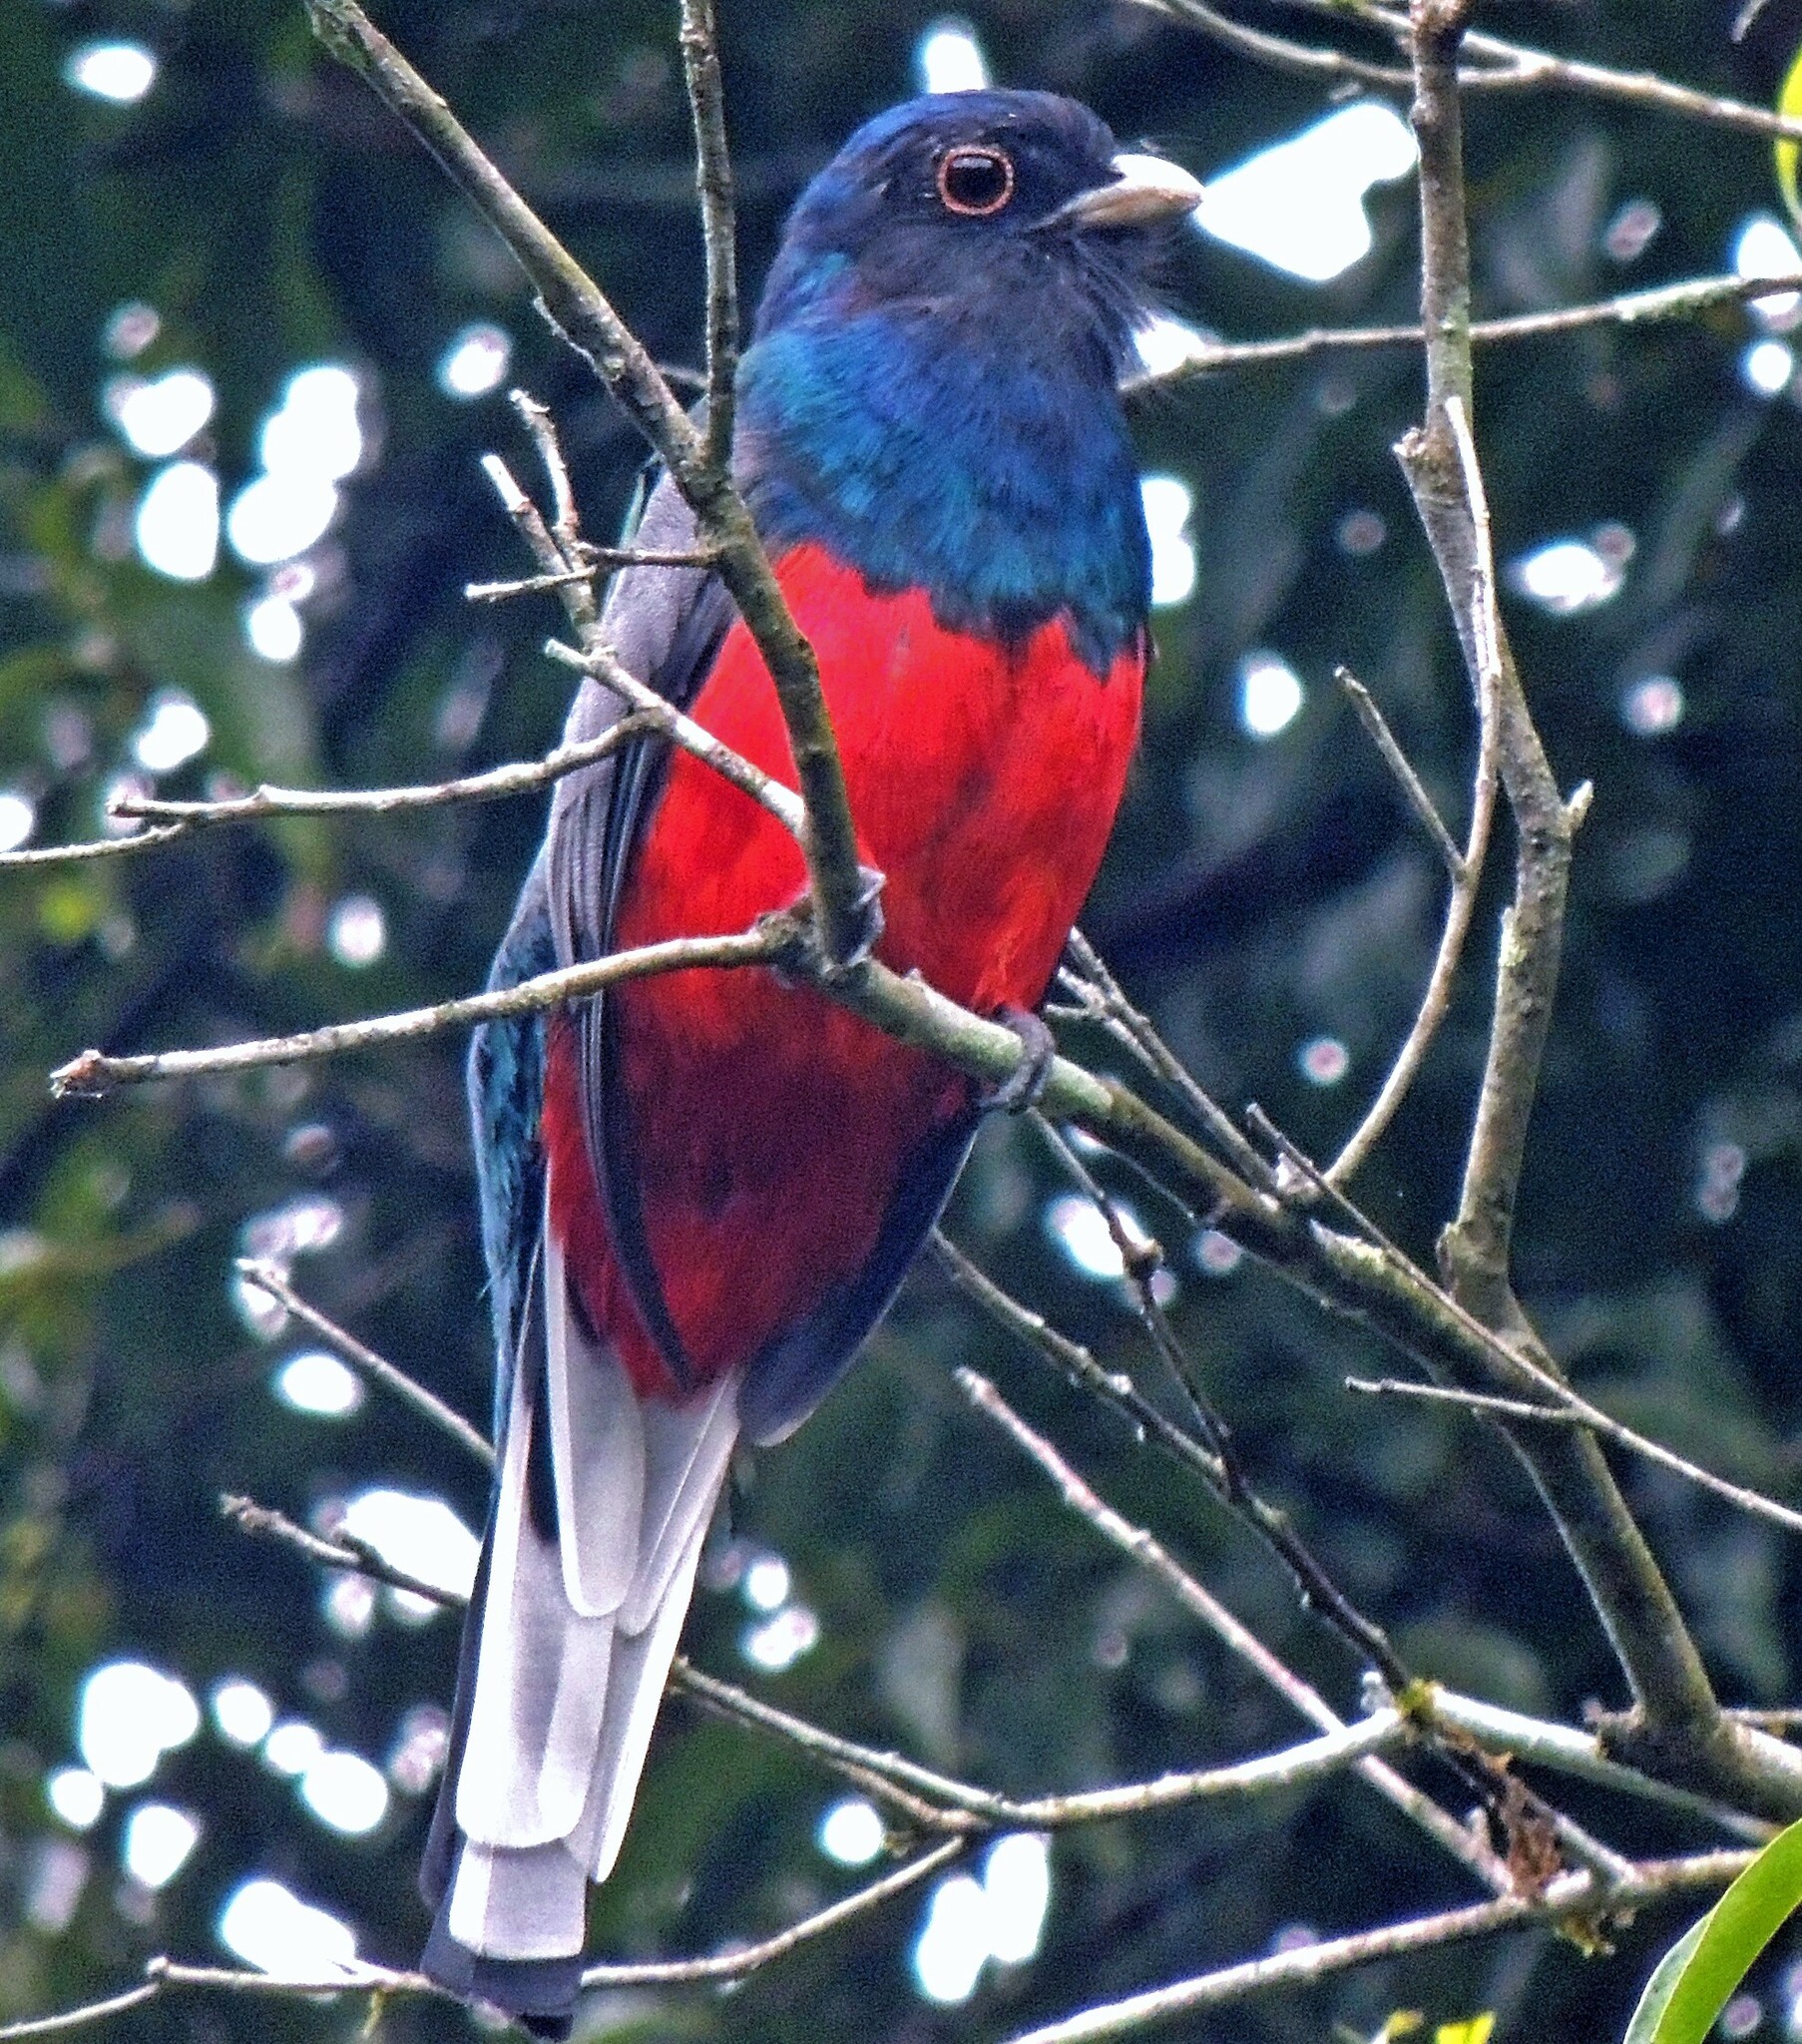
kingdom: Animalia
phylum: Chordata
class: Aves
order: Trogoniformes
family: Trogonidae
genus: Trogon
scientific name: Trogon surrucura
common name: Surucua trogon
